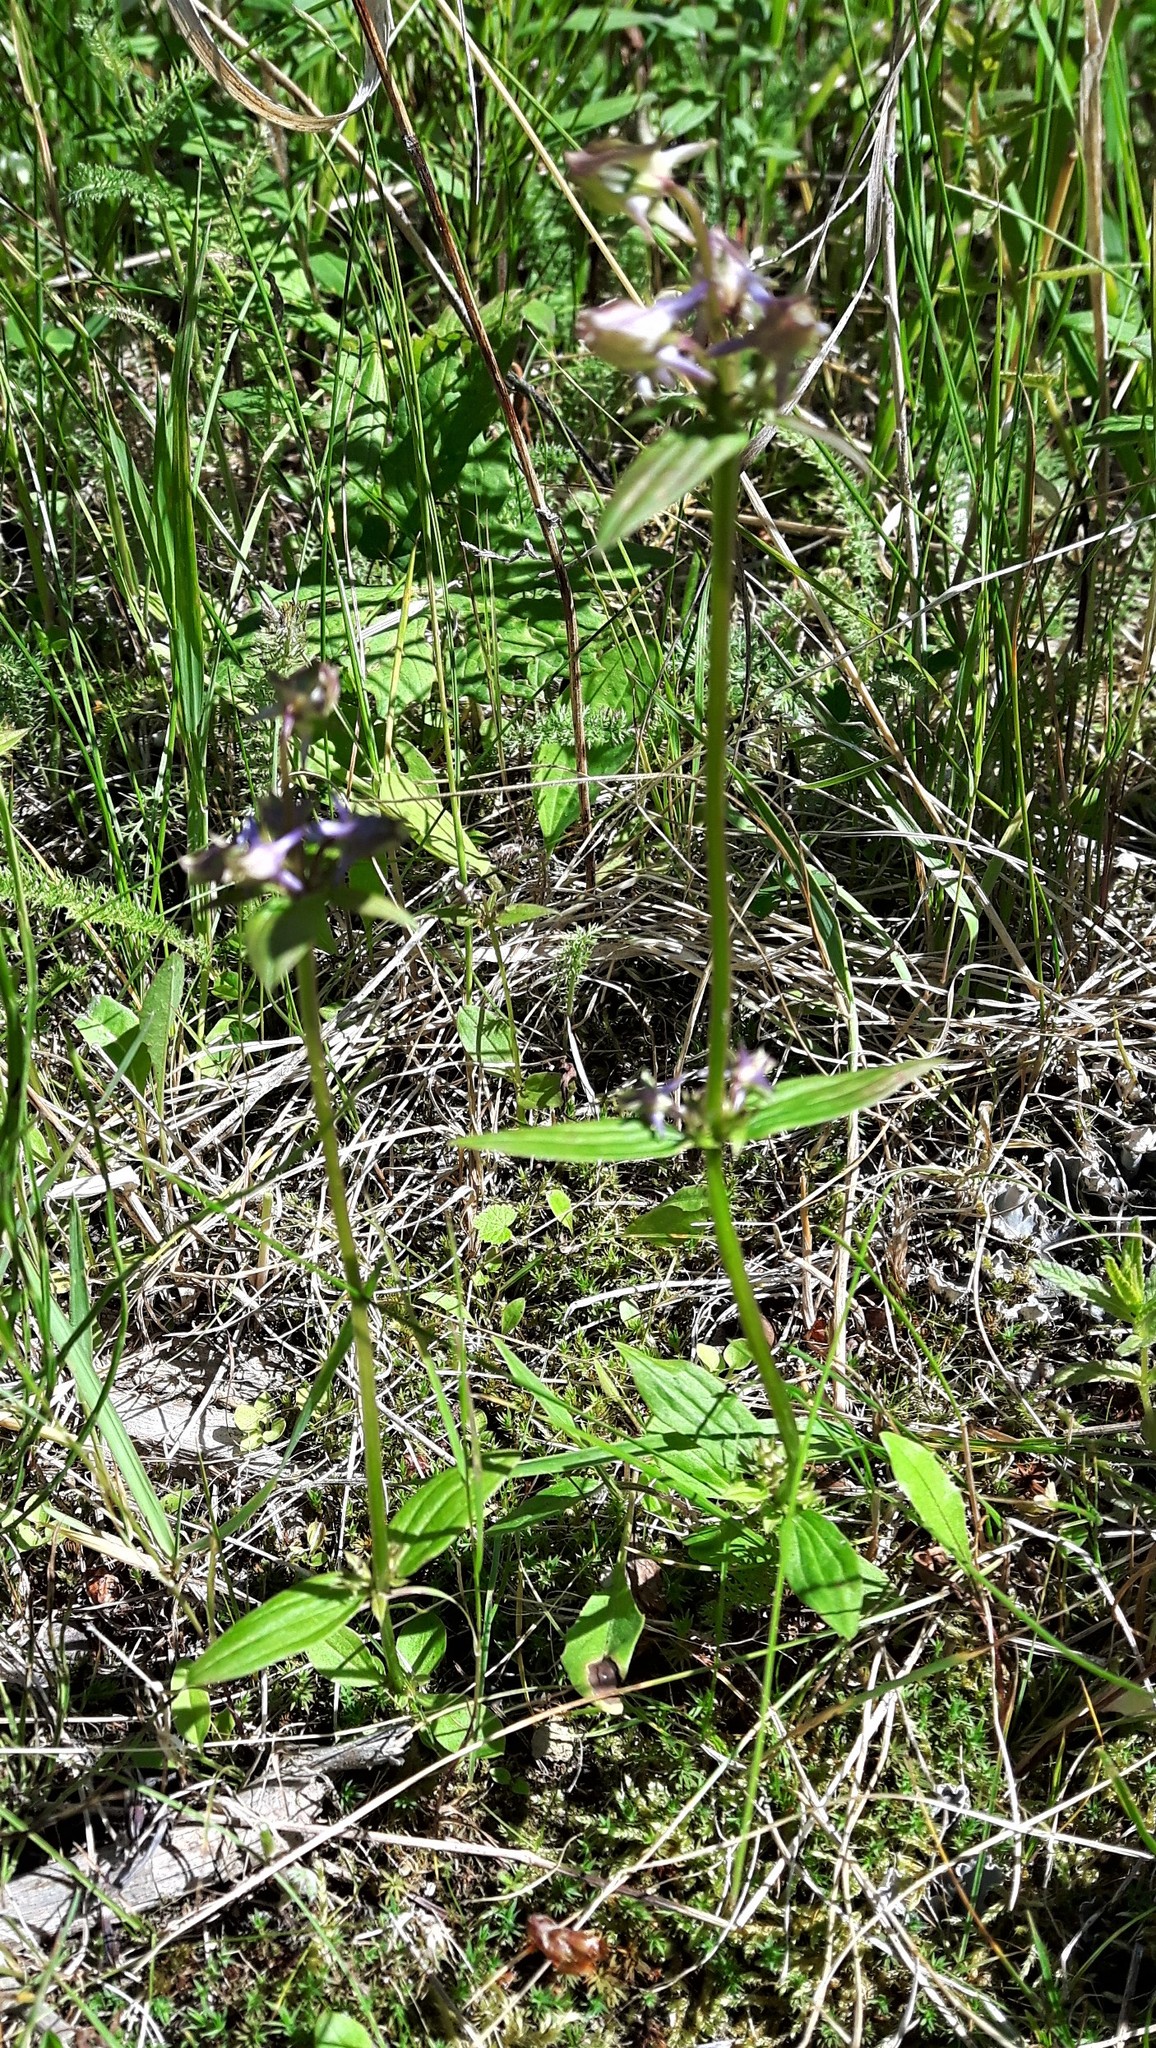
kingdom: Plantae
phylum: Tracheophyta
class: Magnoliopsida
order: Gentianales
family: Gentianaceae
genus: Halenia
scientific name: Halenia deflexa
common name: American spurred gentian
